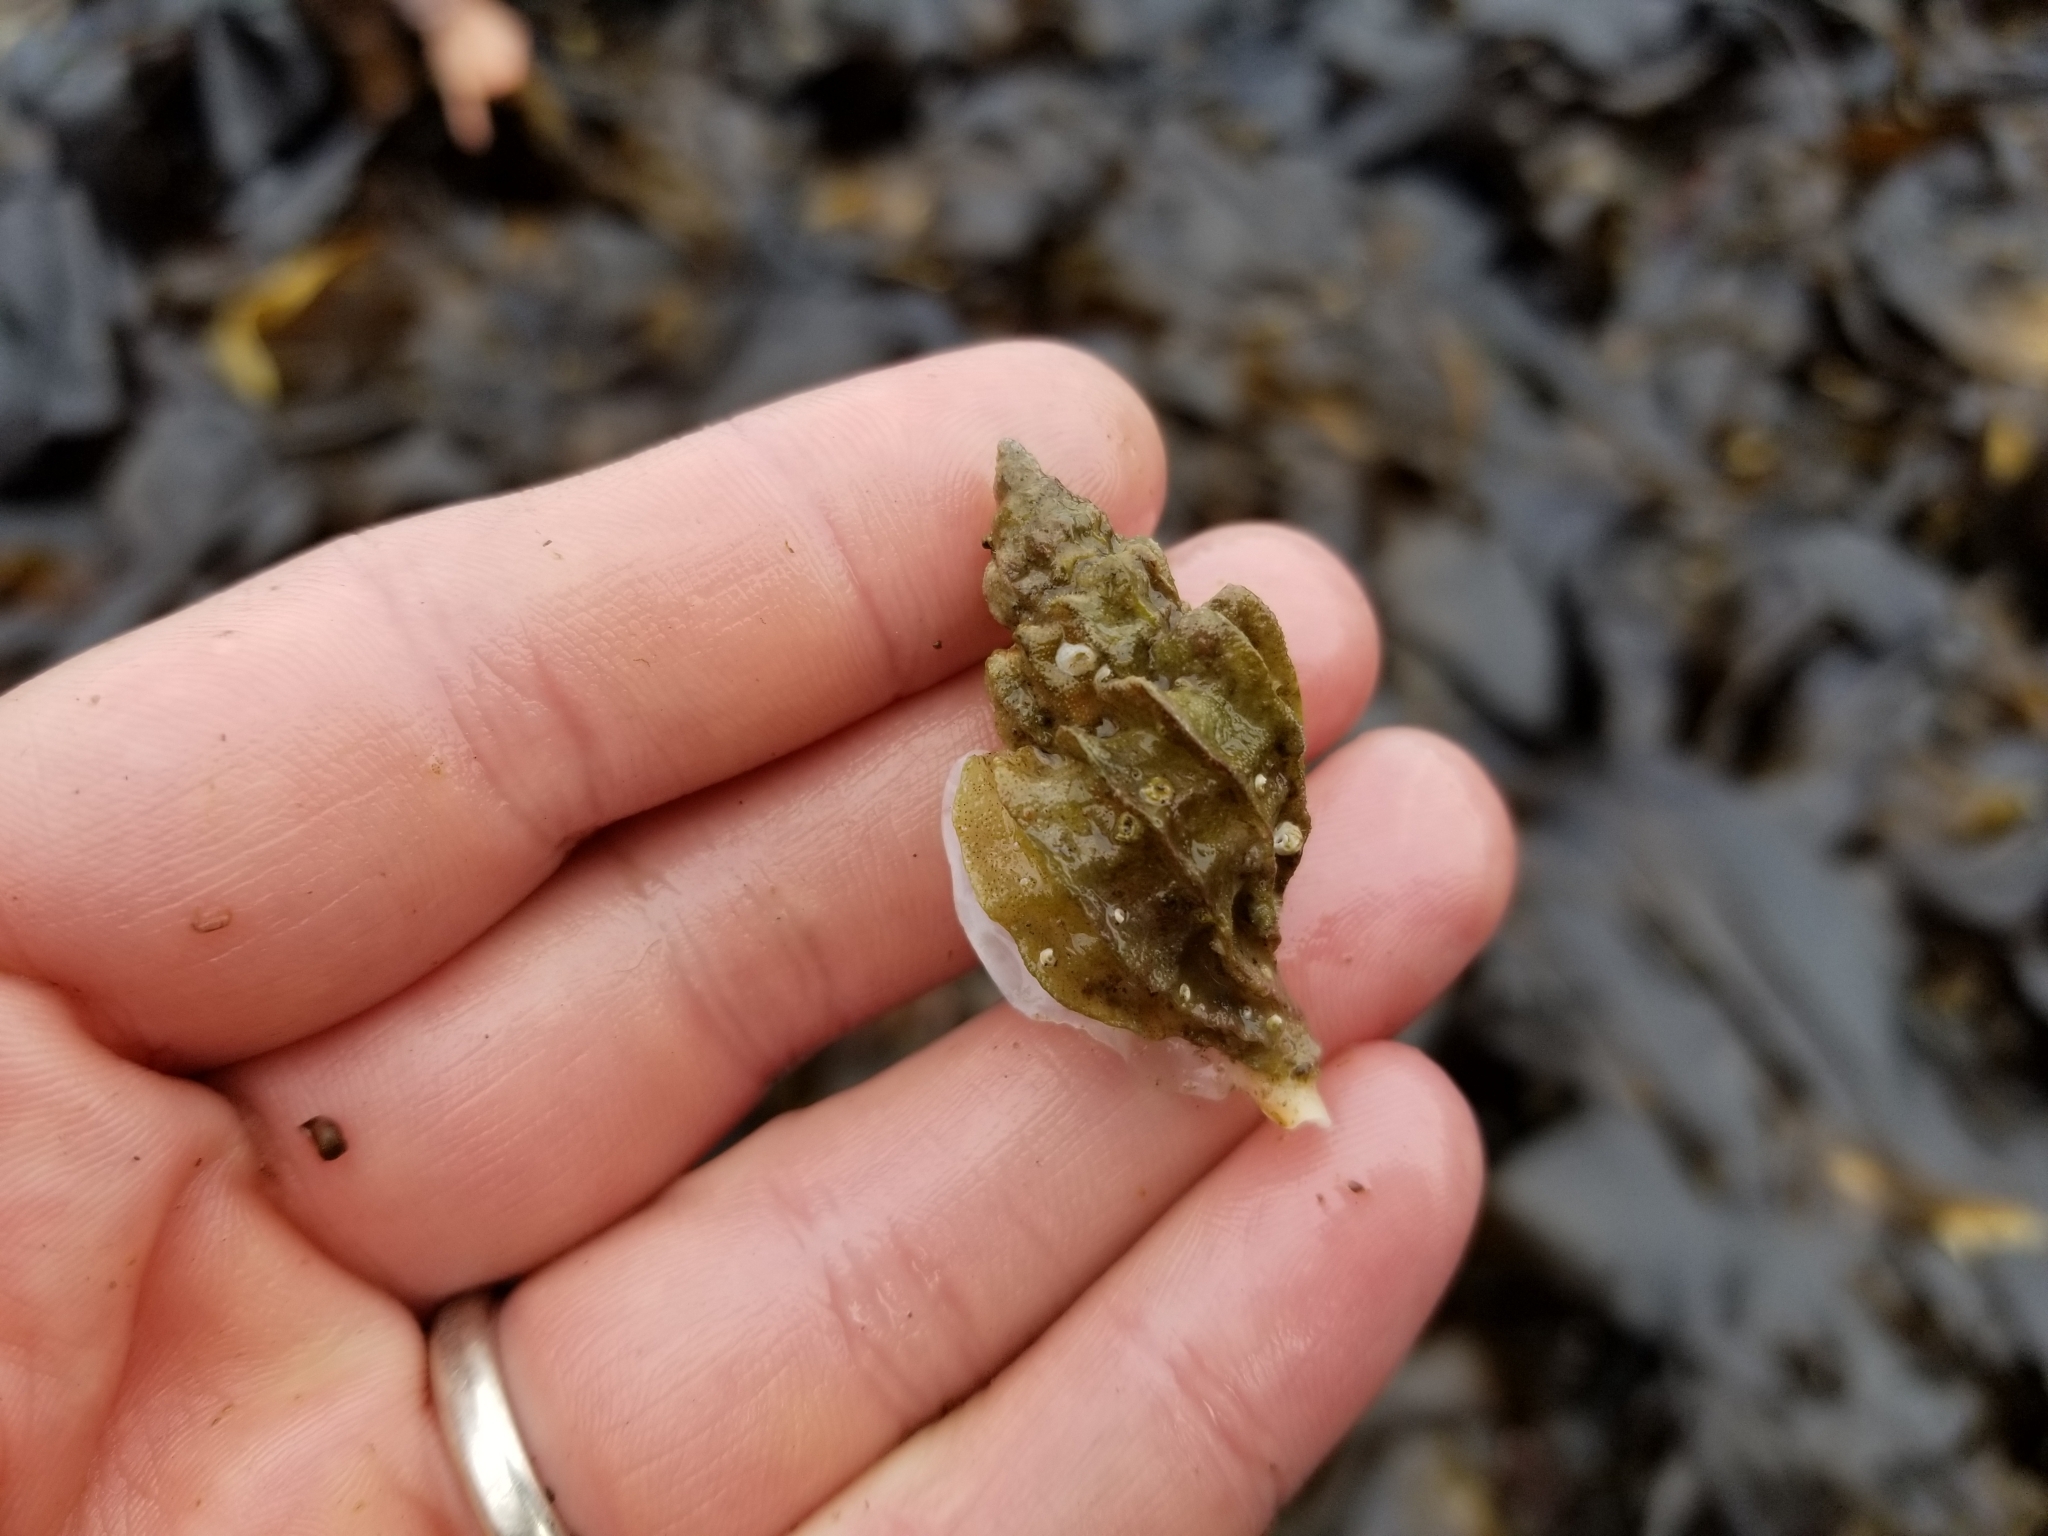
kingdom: Animalia
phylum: Mollusca
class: Gastropoda
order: Neogastropoda
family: Muricidae
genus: Scabrotrophon
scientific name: Scabrotrophon stuarti
